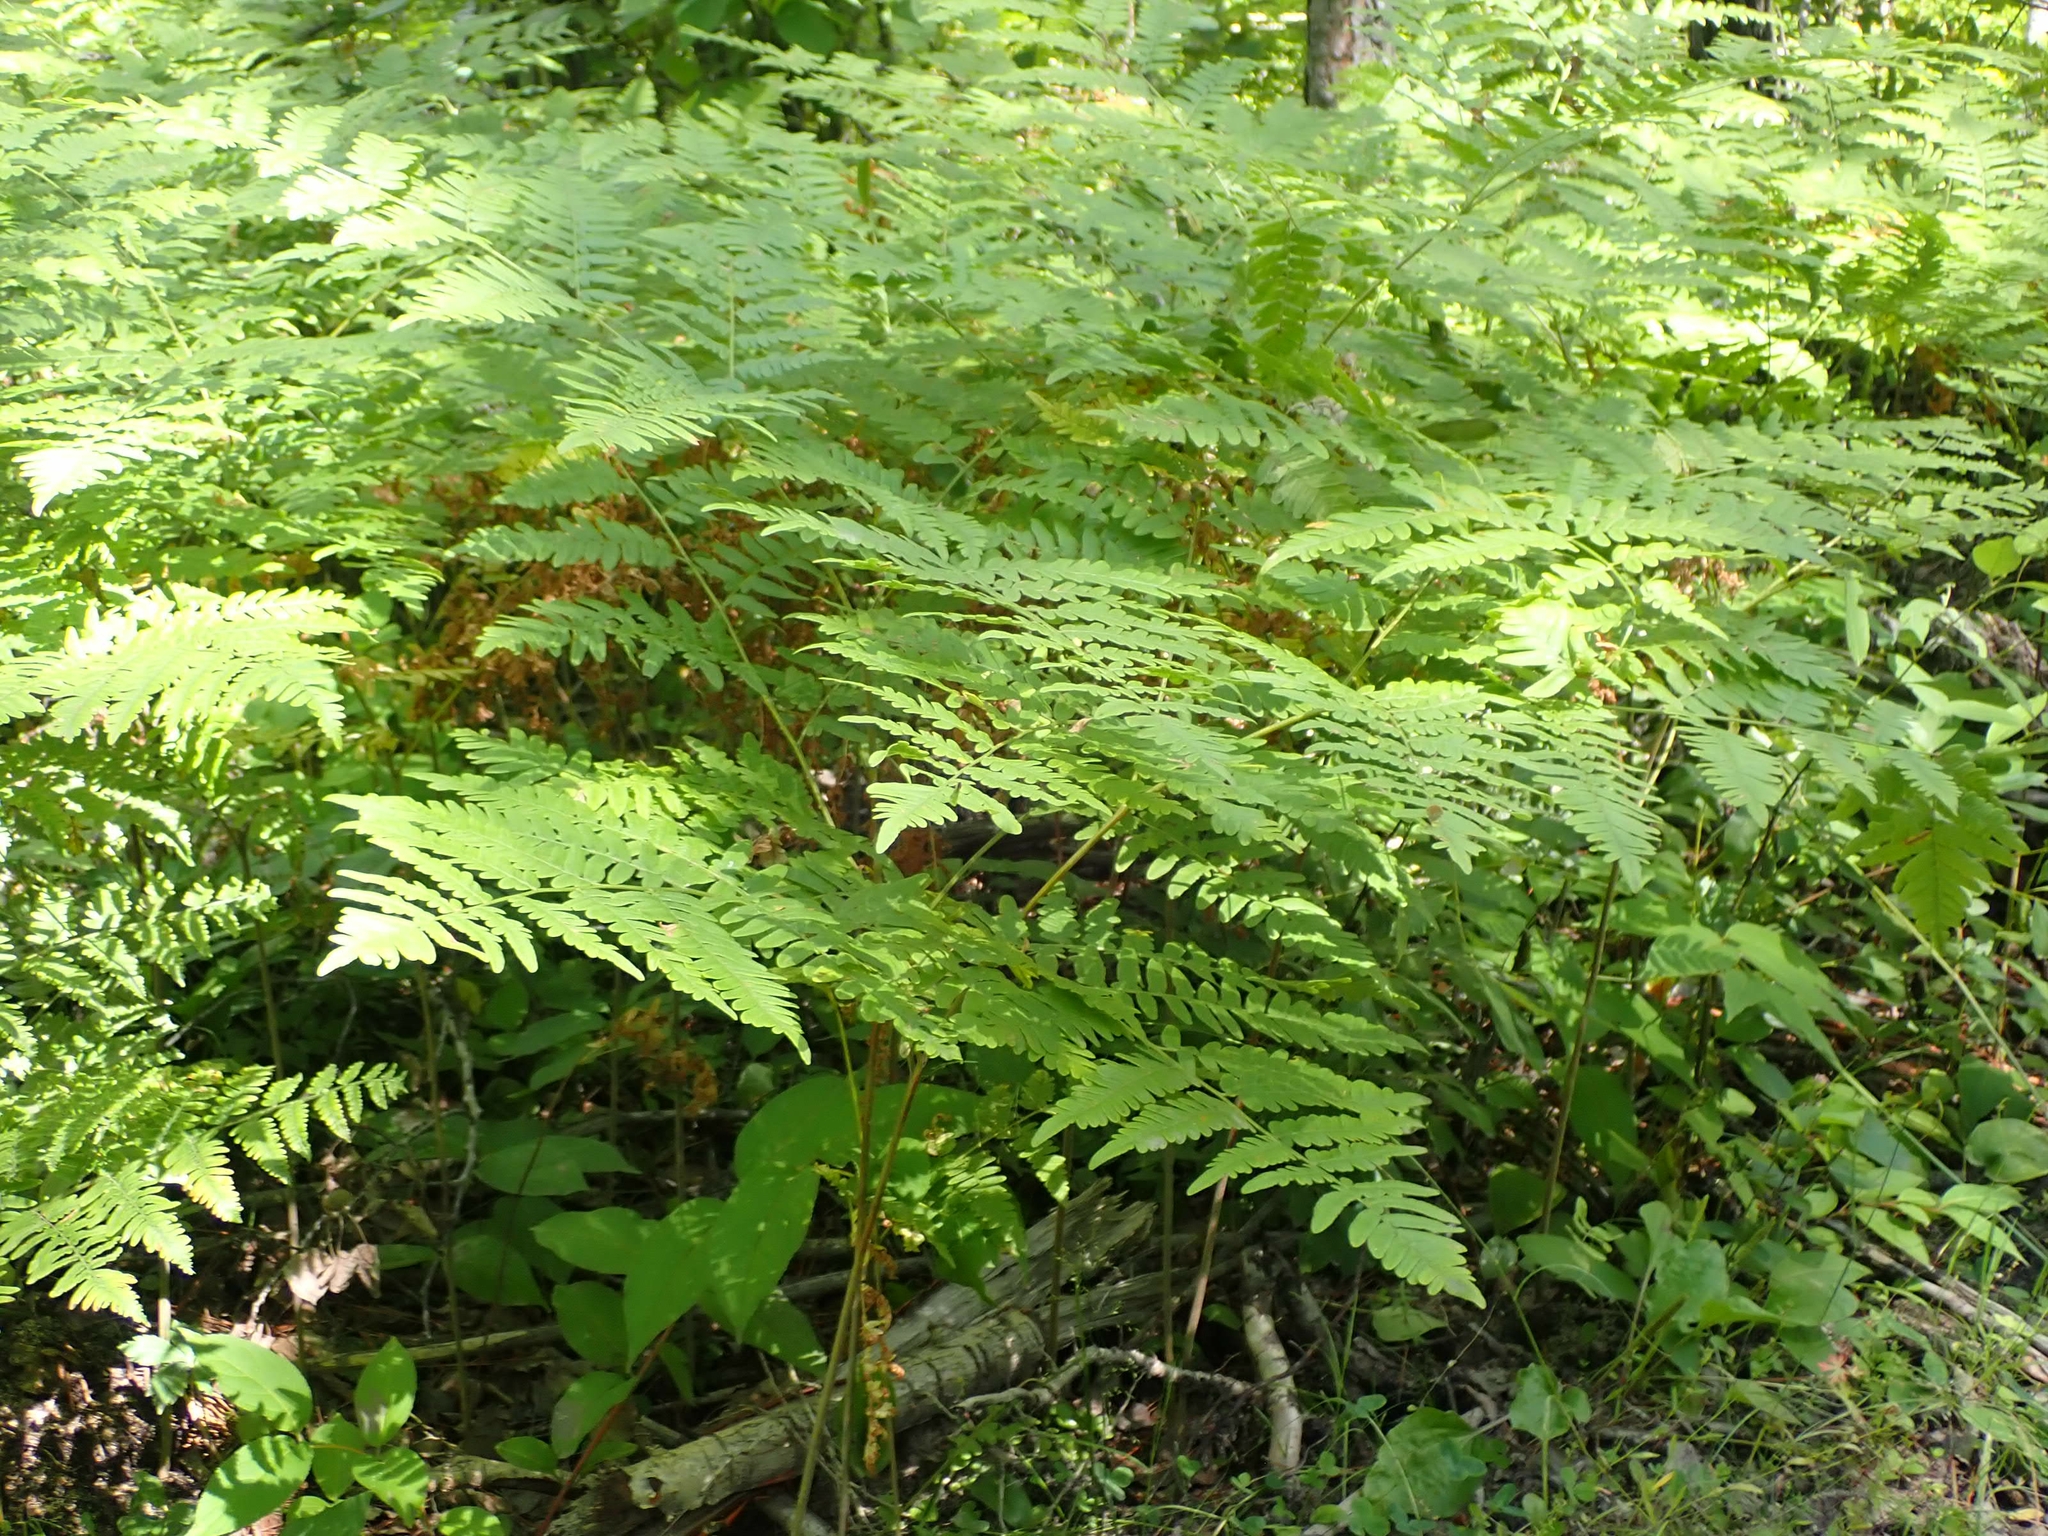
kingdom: Plantae
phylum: Tracheophyta
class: Polypodiopsida
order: Polypodiales
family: Dennstaedtiaceae
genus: Pteridium
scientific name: Pteridium aquilinum
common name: Bracken
